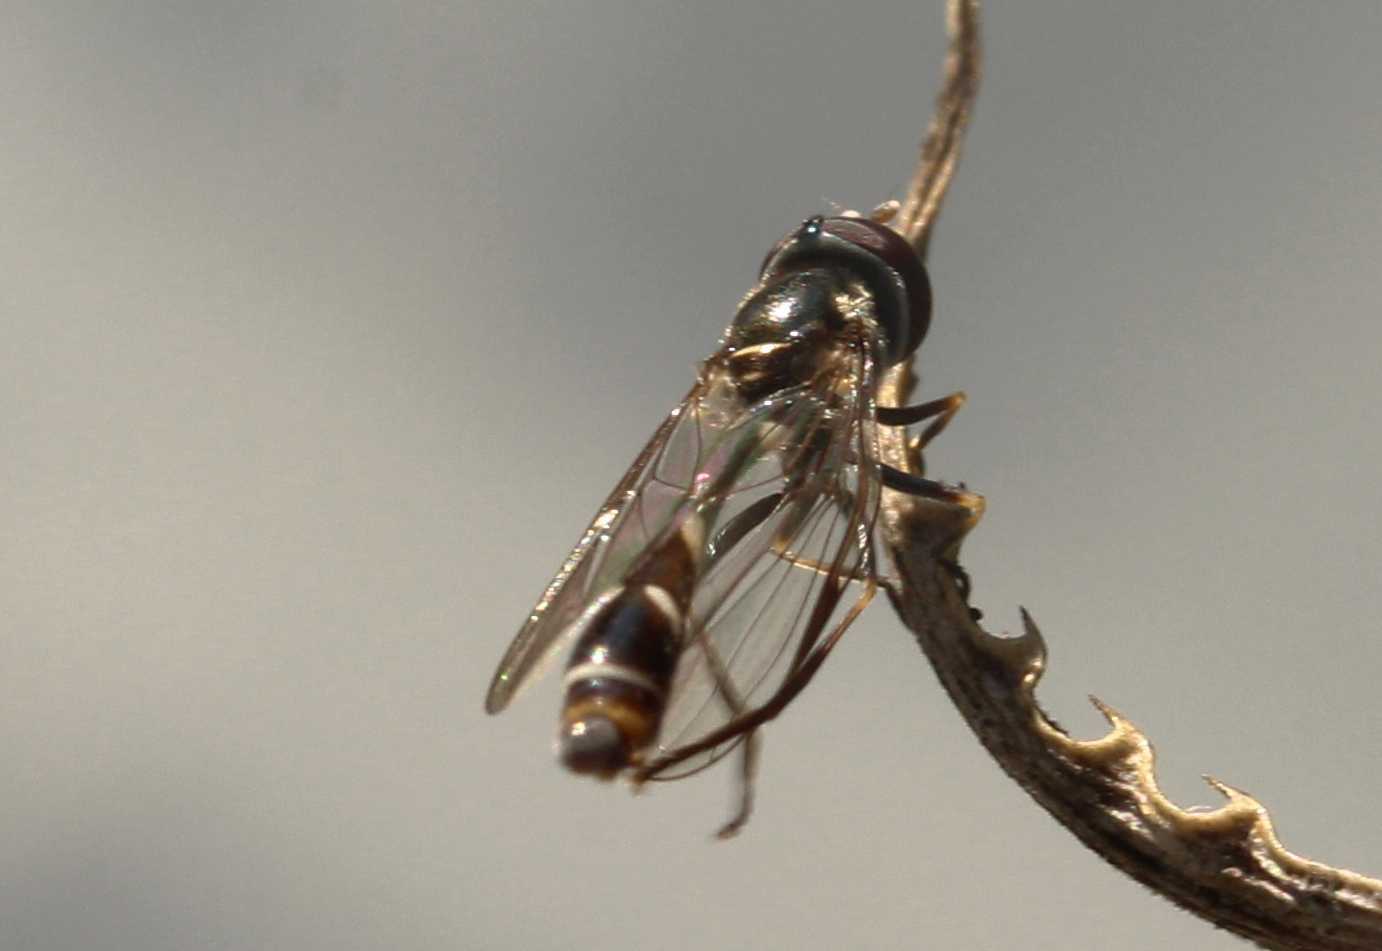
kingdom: Animalia
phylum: Arthropoda
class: Insecta
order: Diptera
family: Syrphidae
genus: Dioprosopa
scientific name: Dioprosopa clavatus
